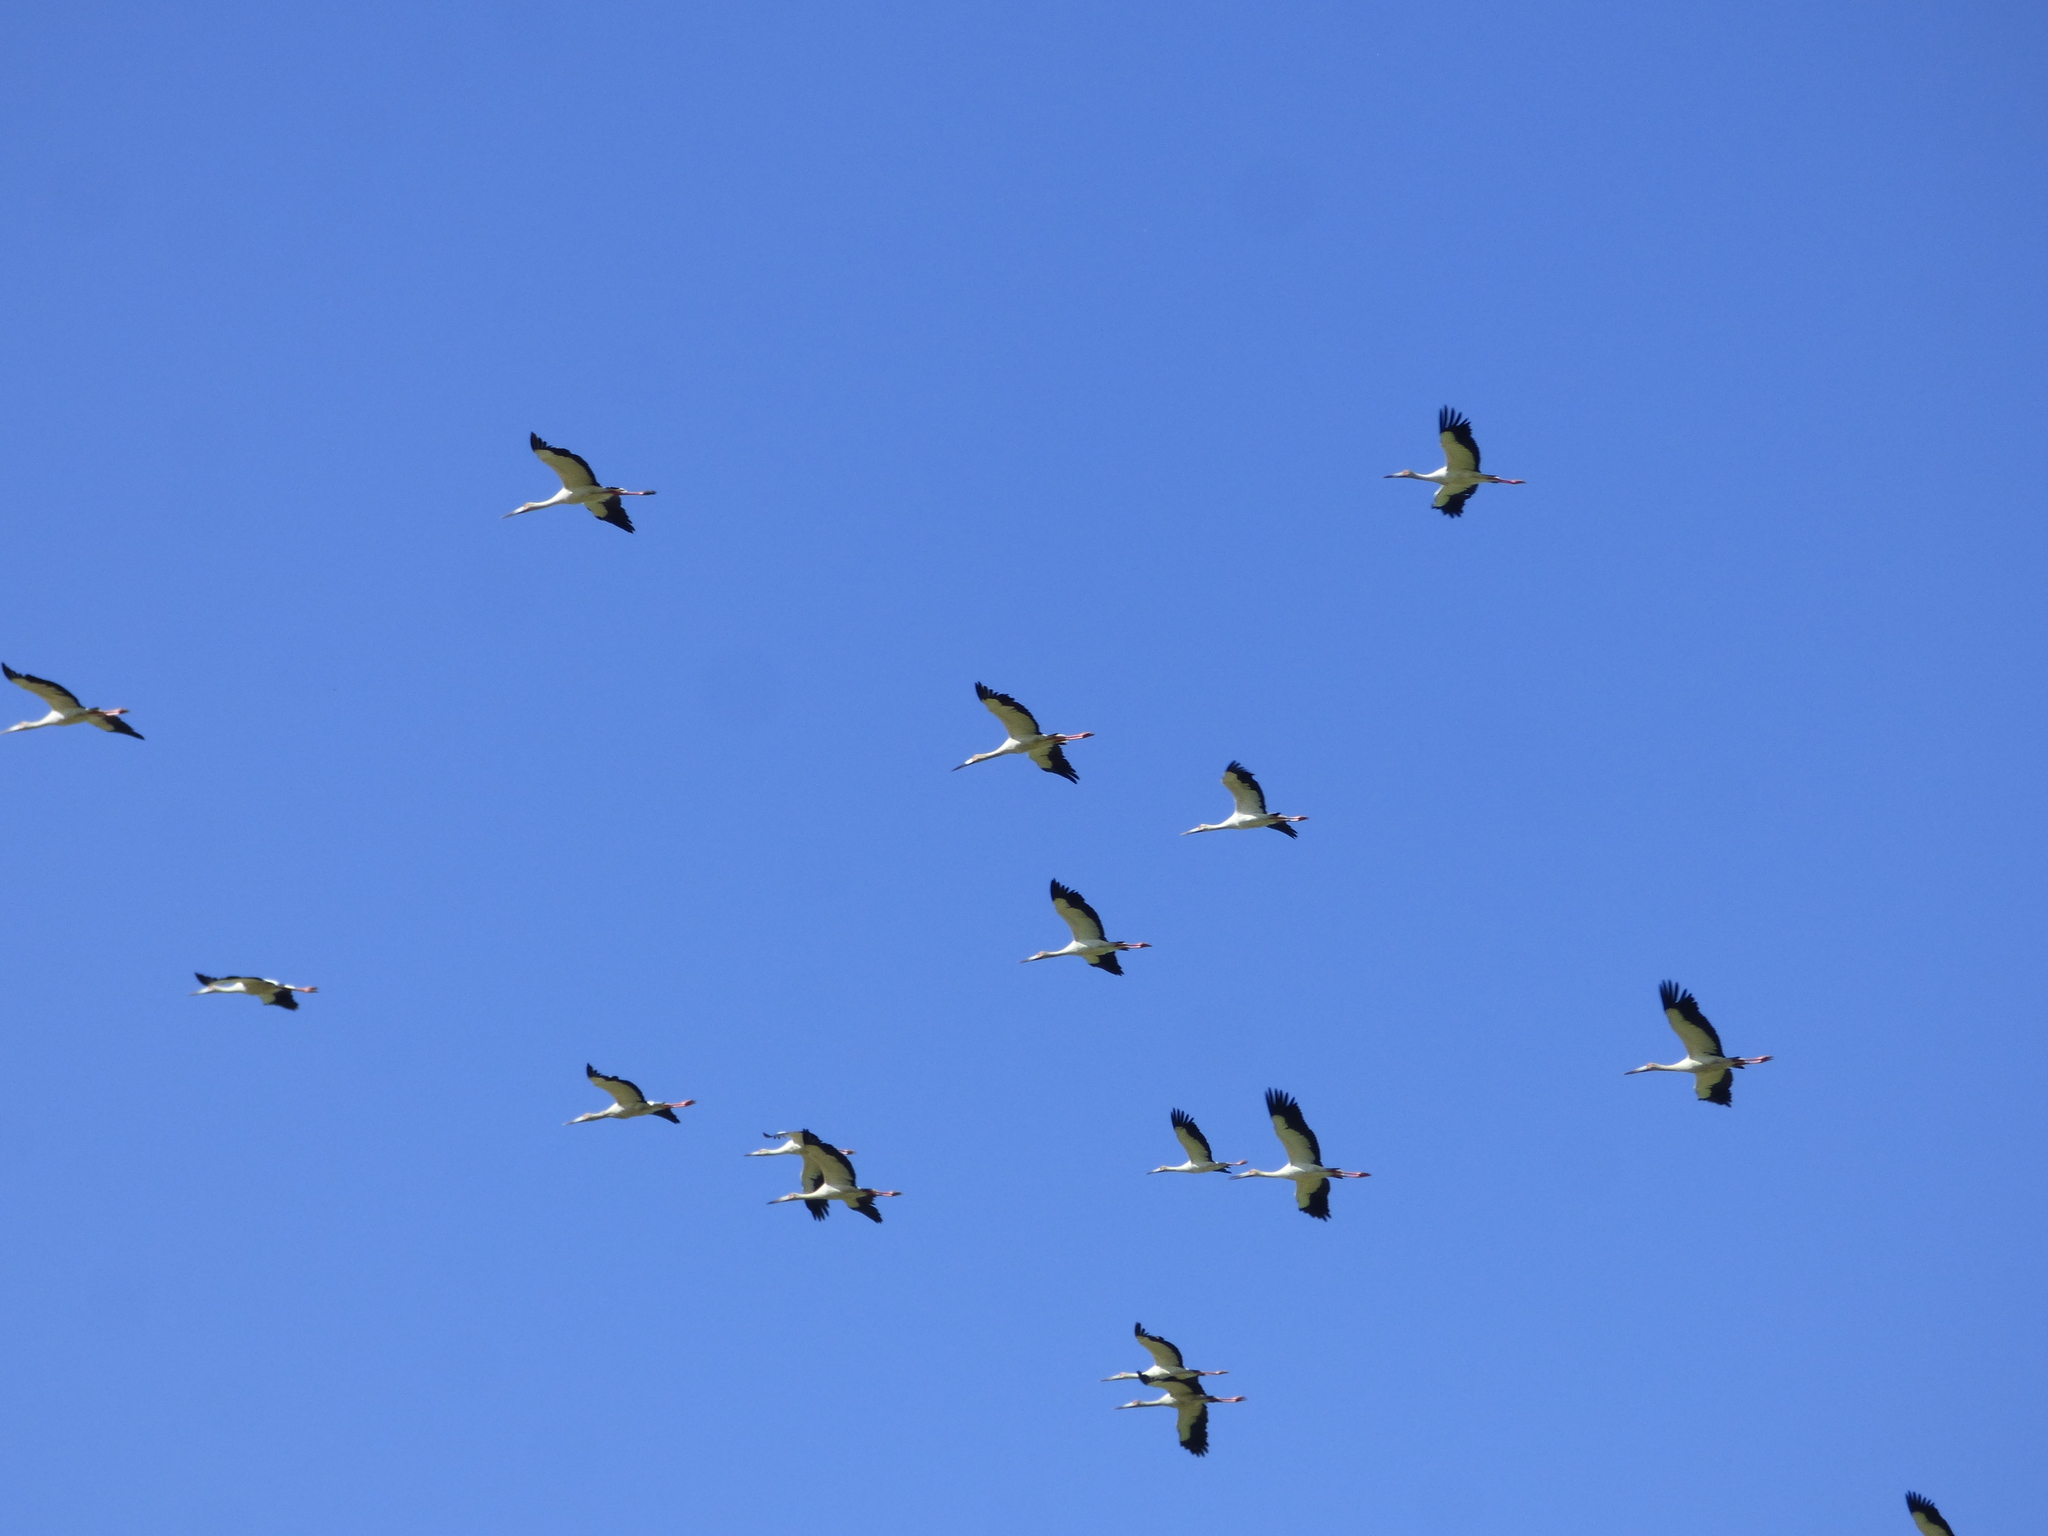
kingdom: Animalia
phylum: Chordata
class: Aves
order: Ciconiiformes
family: Ciconiidae
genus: Ciconia
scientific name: Ciconia maguari
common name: Maguari stork
